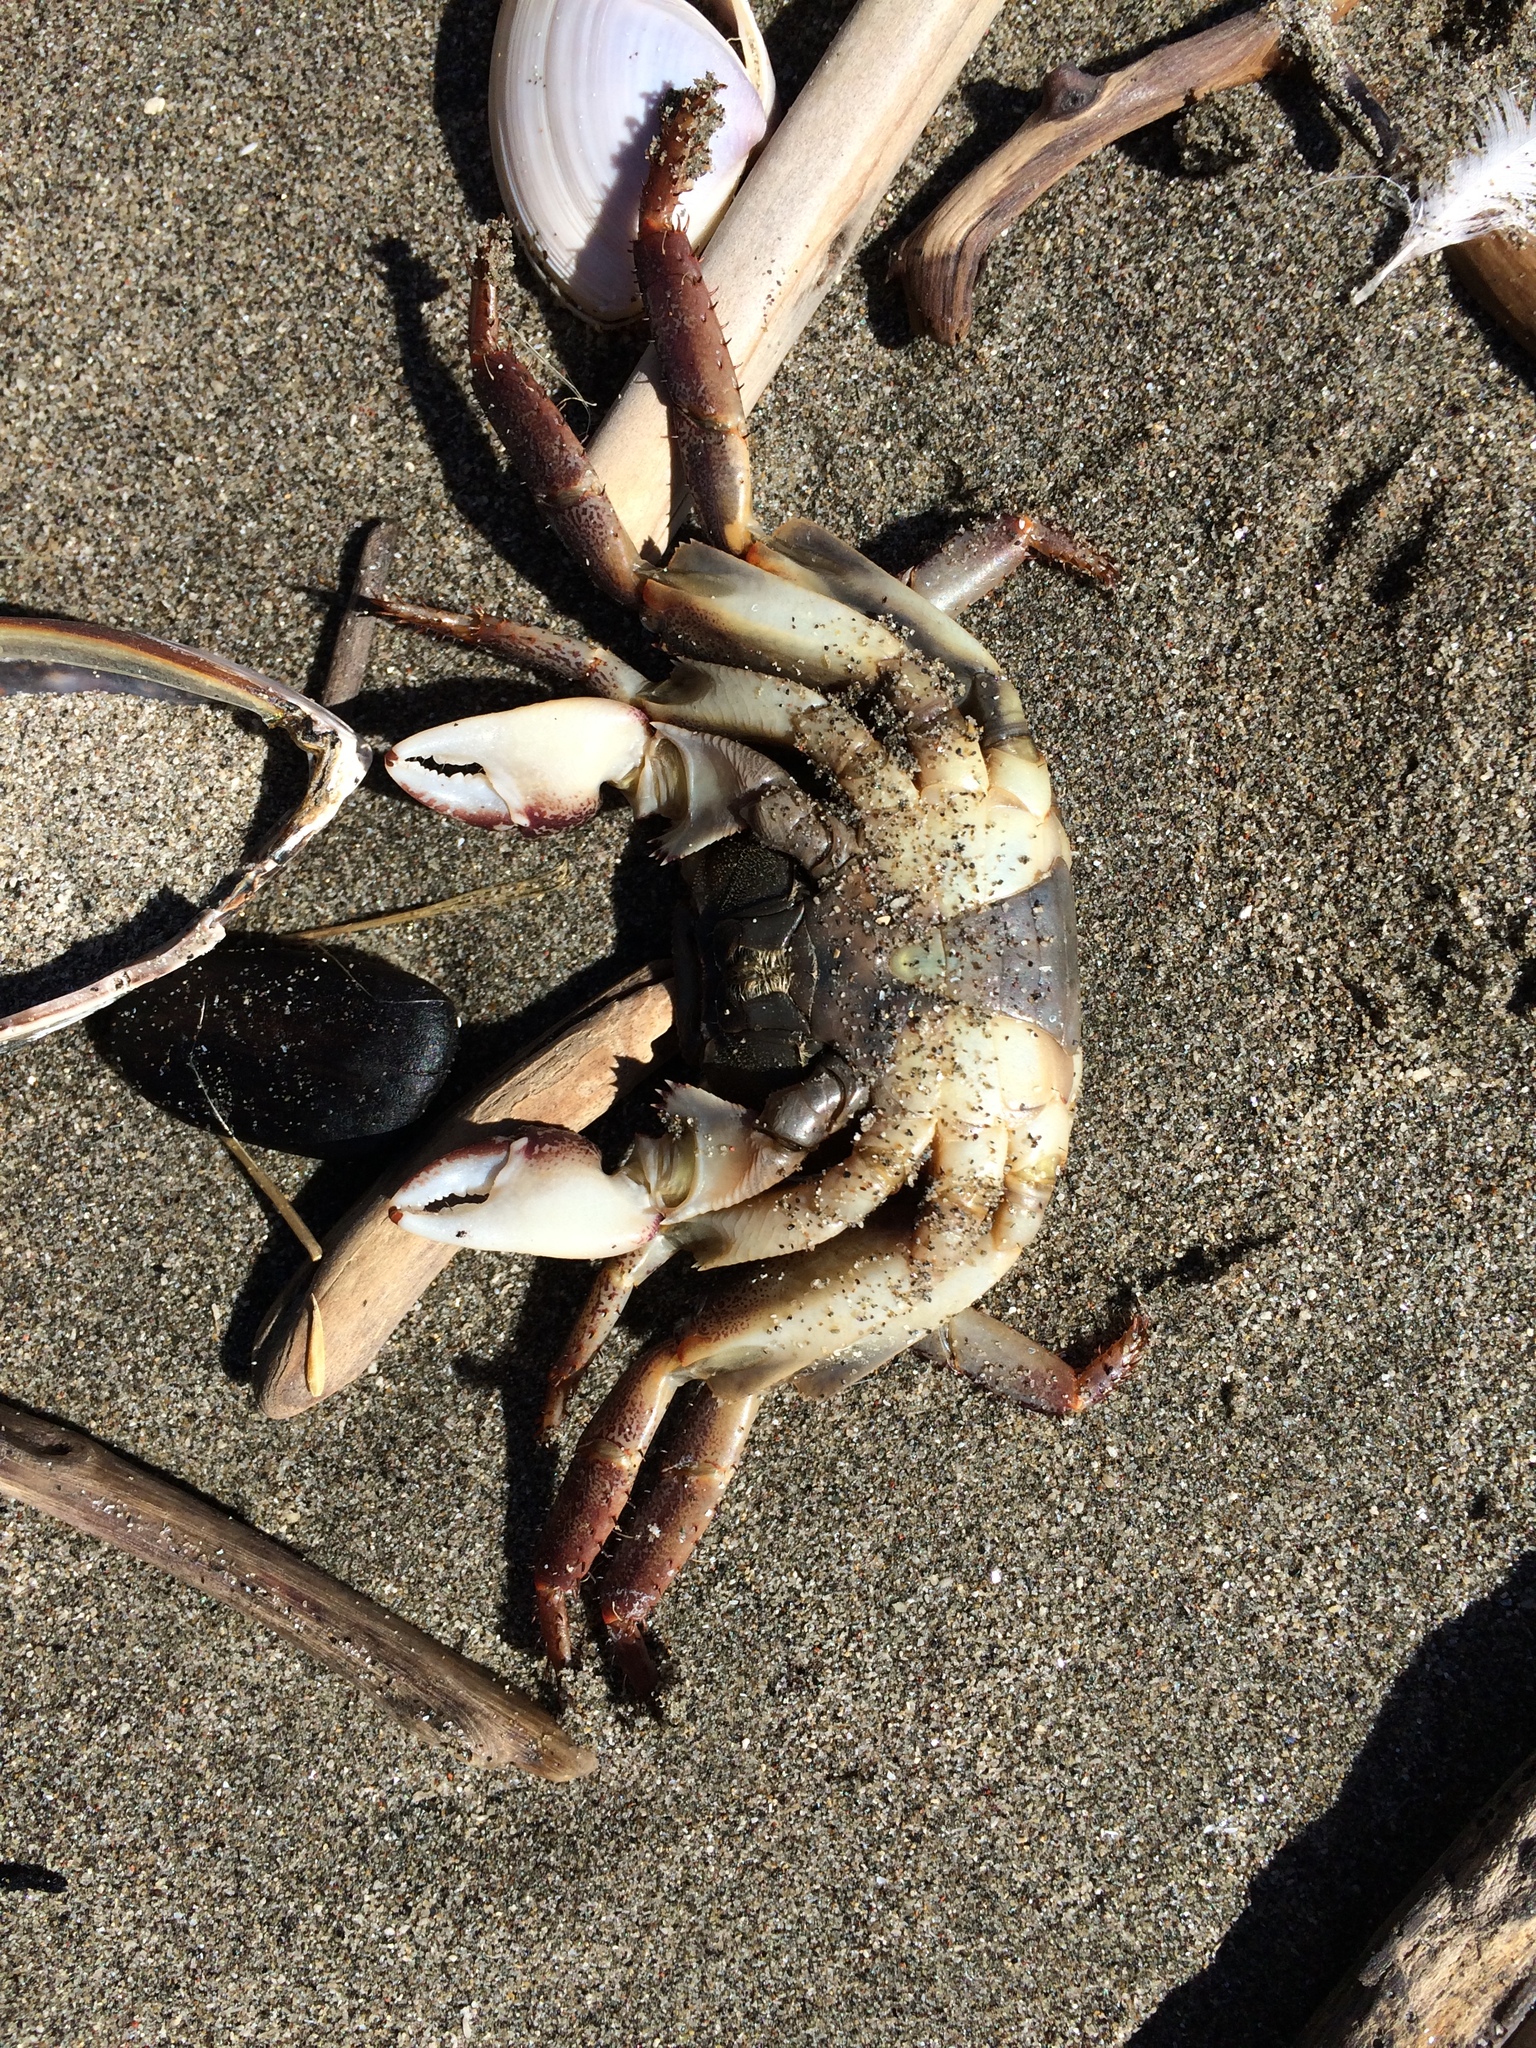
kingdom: Animalia
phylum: Arthropoda
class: Malacostraca
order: Decapoda
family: Grapsidae
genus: Leptograpsus
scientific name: Leptograpsus variegatus
